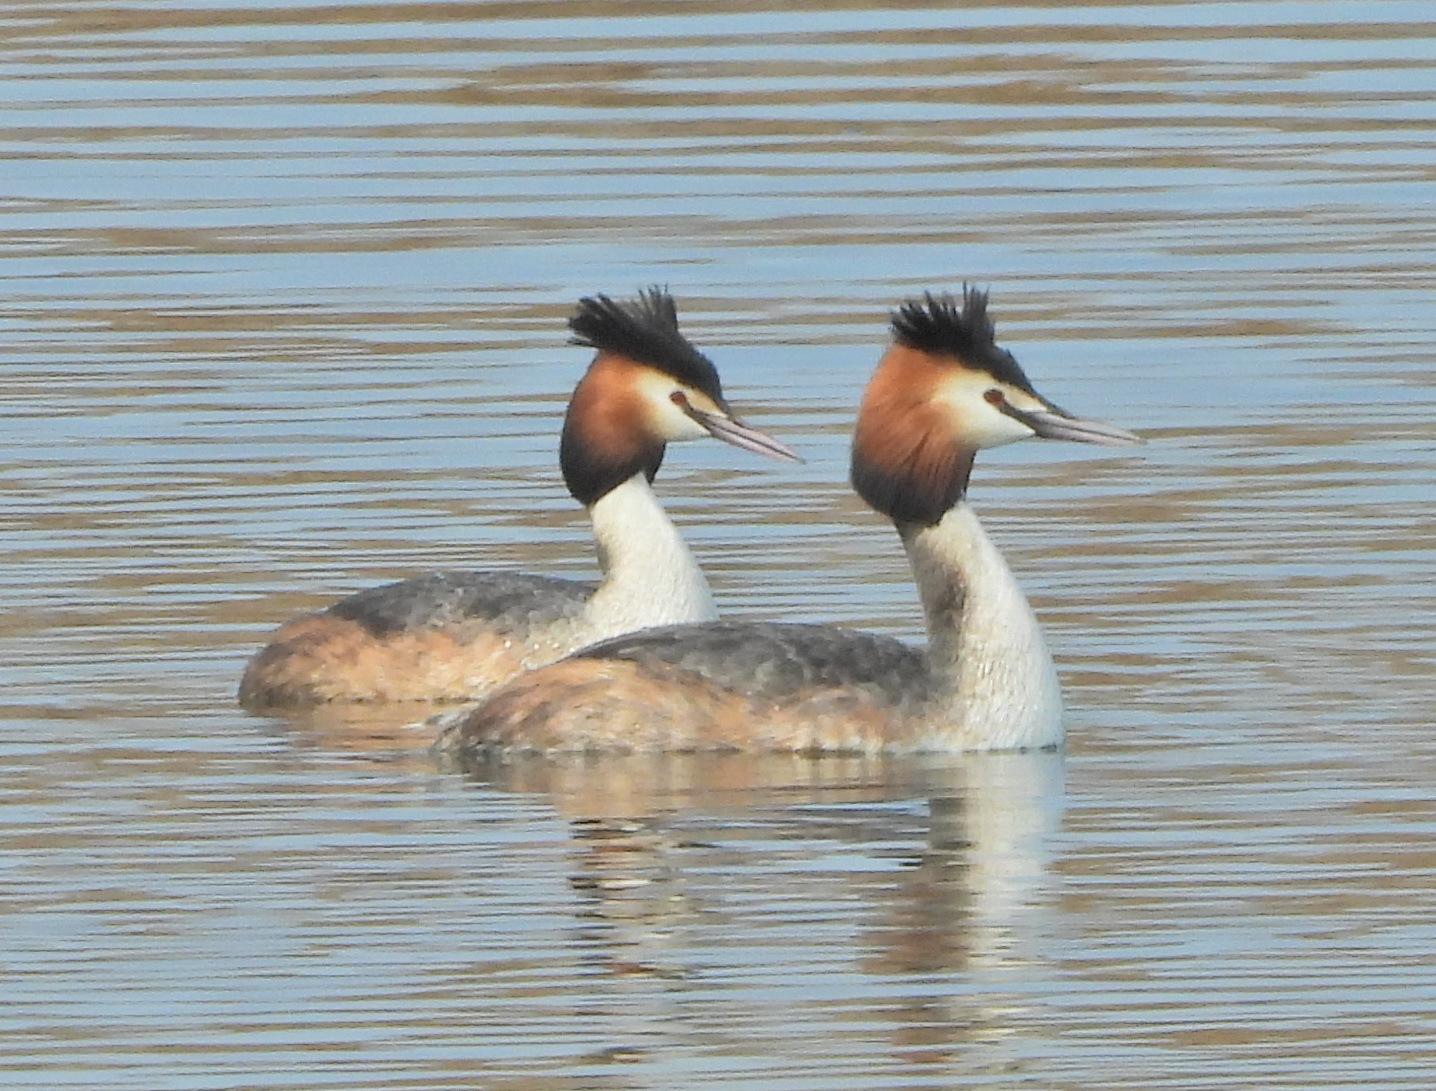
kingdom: Animalia
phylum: Chordata
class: Aves
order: Podicipediformes
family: Podicipedidae
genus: Podiceps
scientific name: Podiceps cristatus
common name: Great crested grebe
